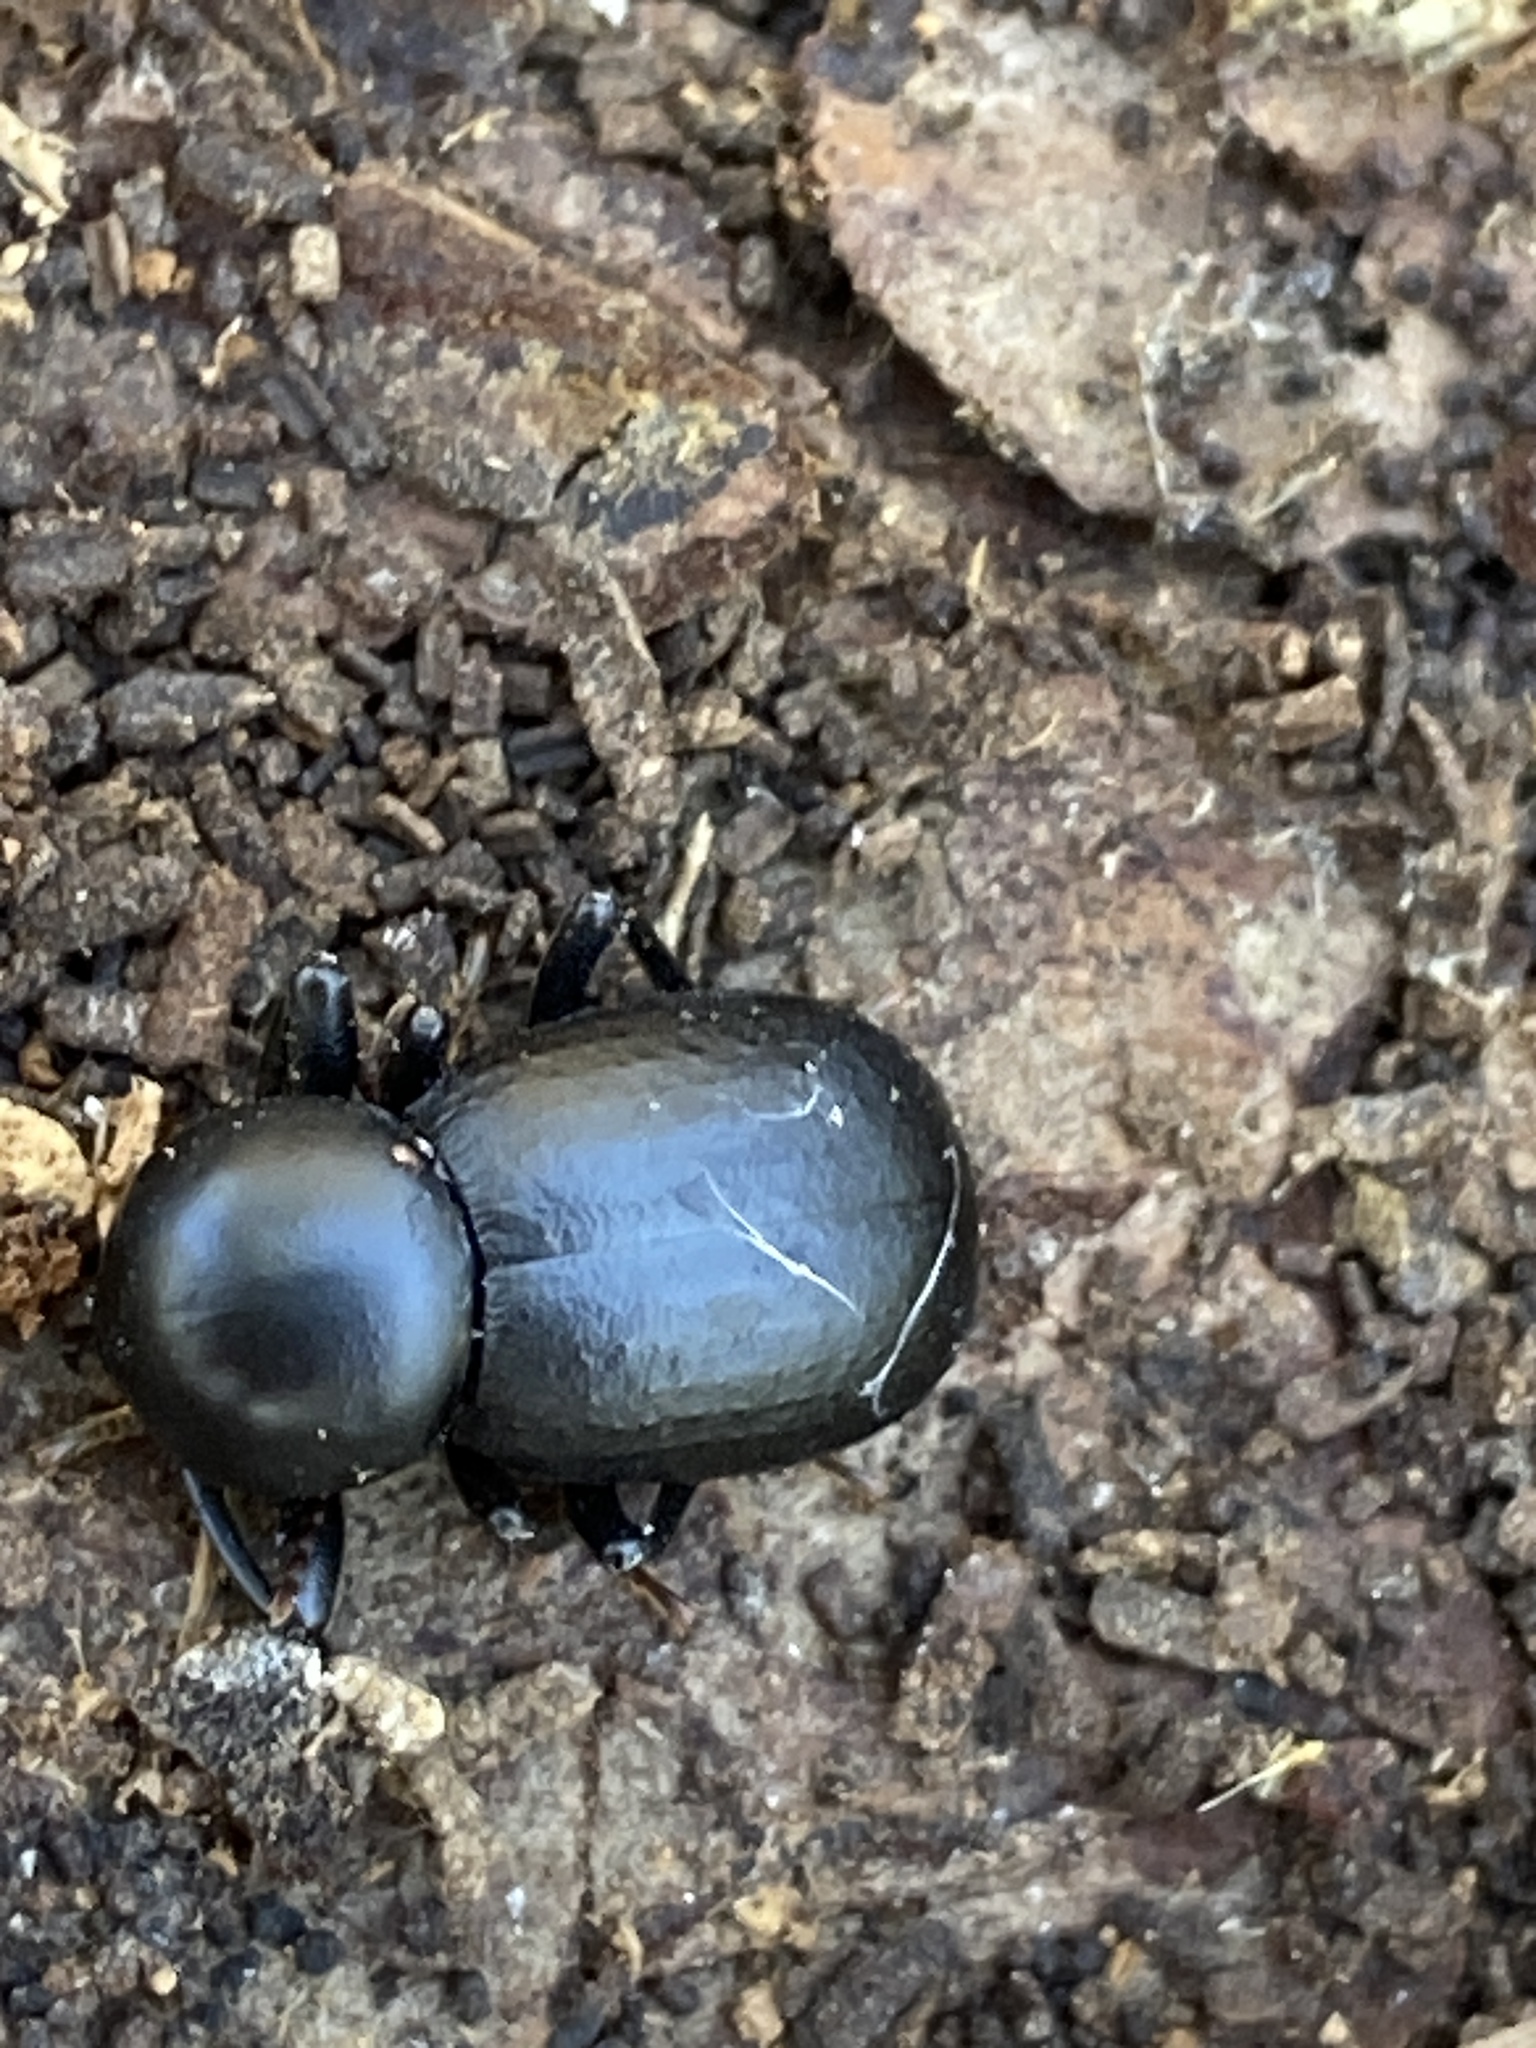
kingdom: Animalia
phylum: Arthropoda
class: Insecta
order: Coleoptera
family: Tenebrionidae
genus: Misolampus
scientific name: Misolampus goudoti
